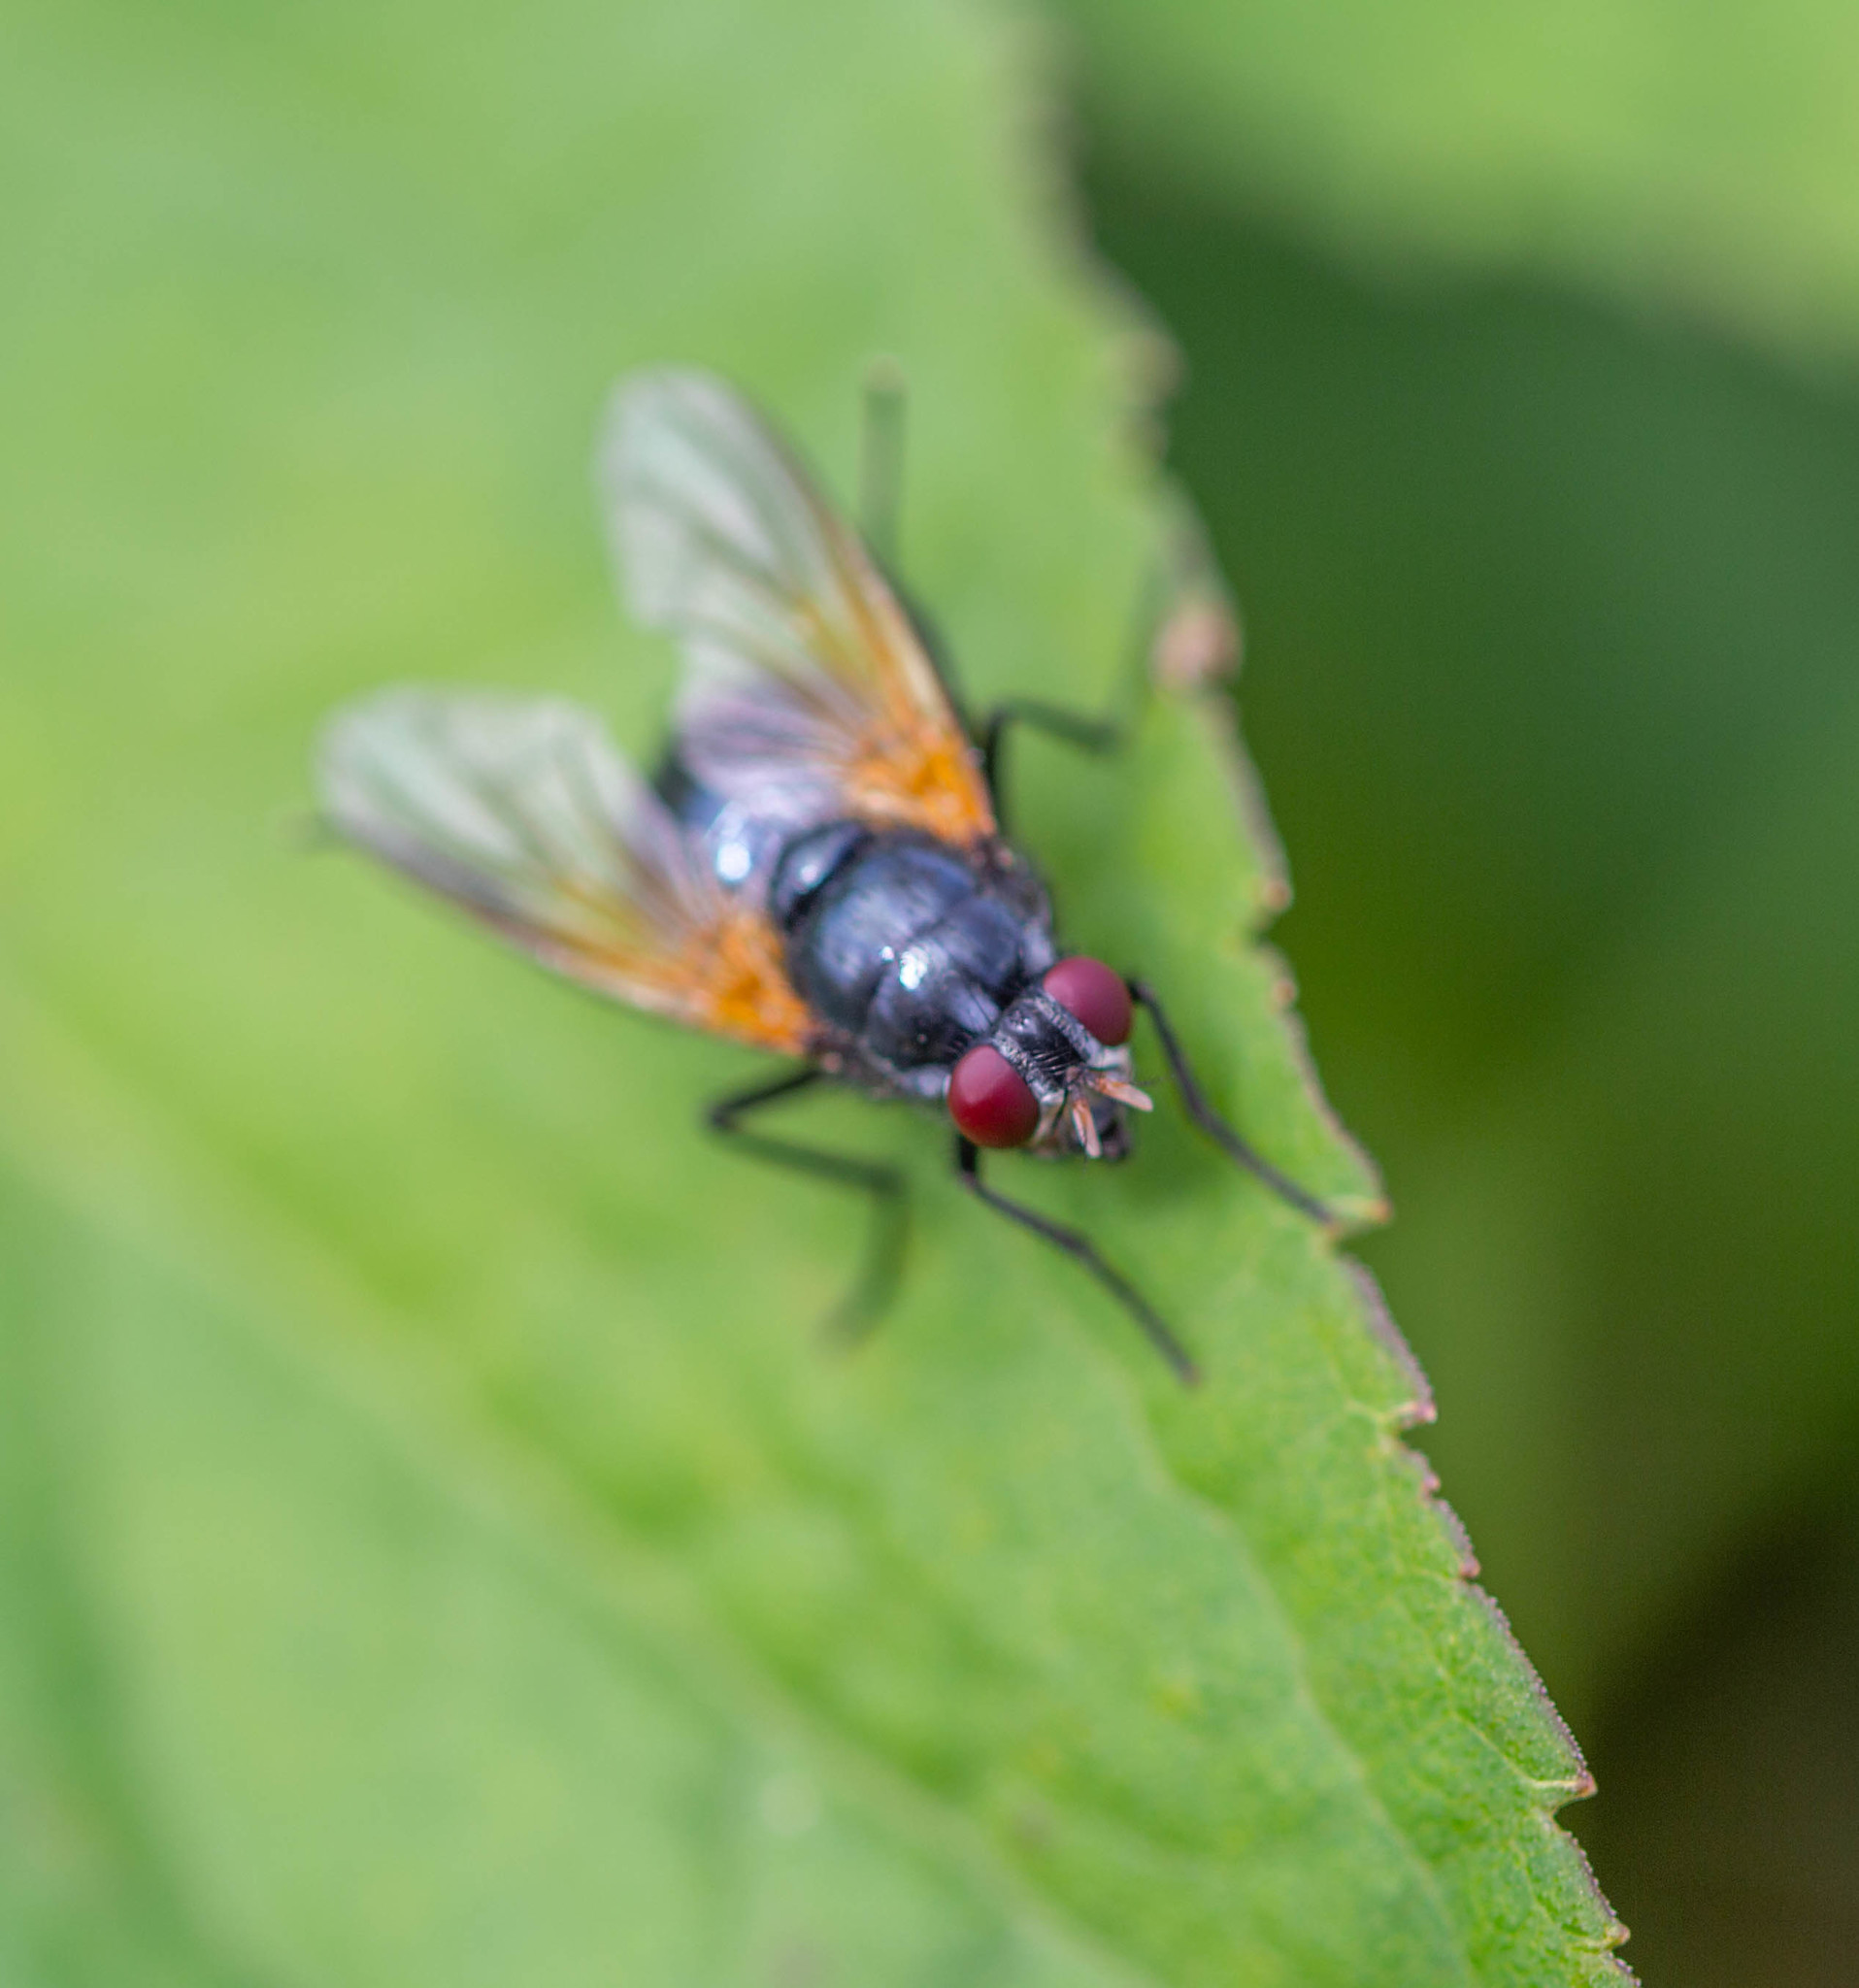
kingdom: Animalia
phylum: Arthropoda
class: Insecta
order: Diptera
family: Muscidae
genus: Mesembrina
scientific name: Mesembrina latreillii
